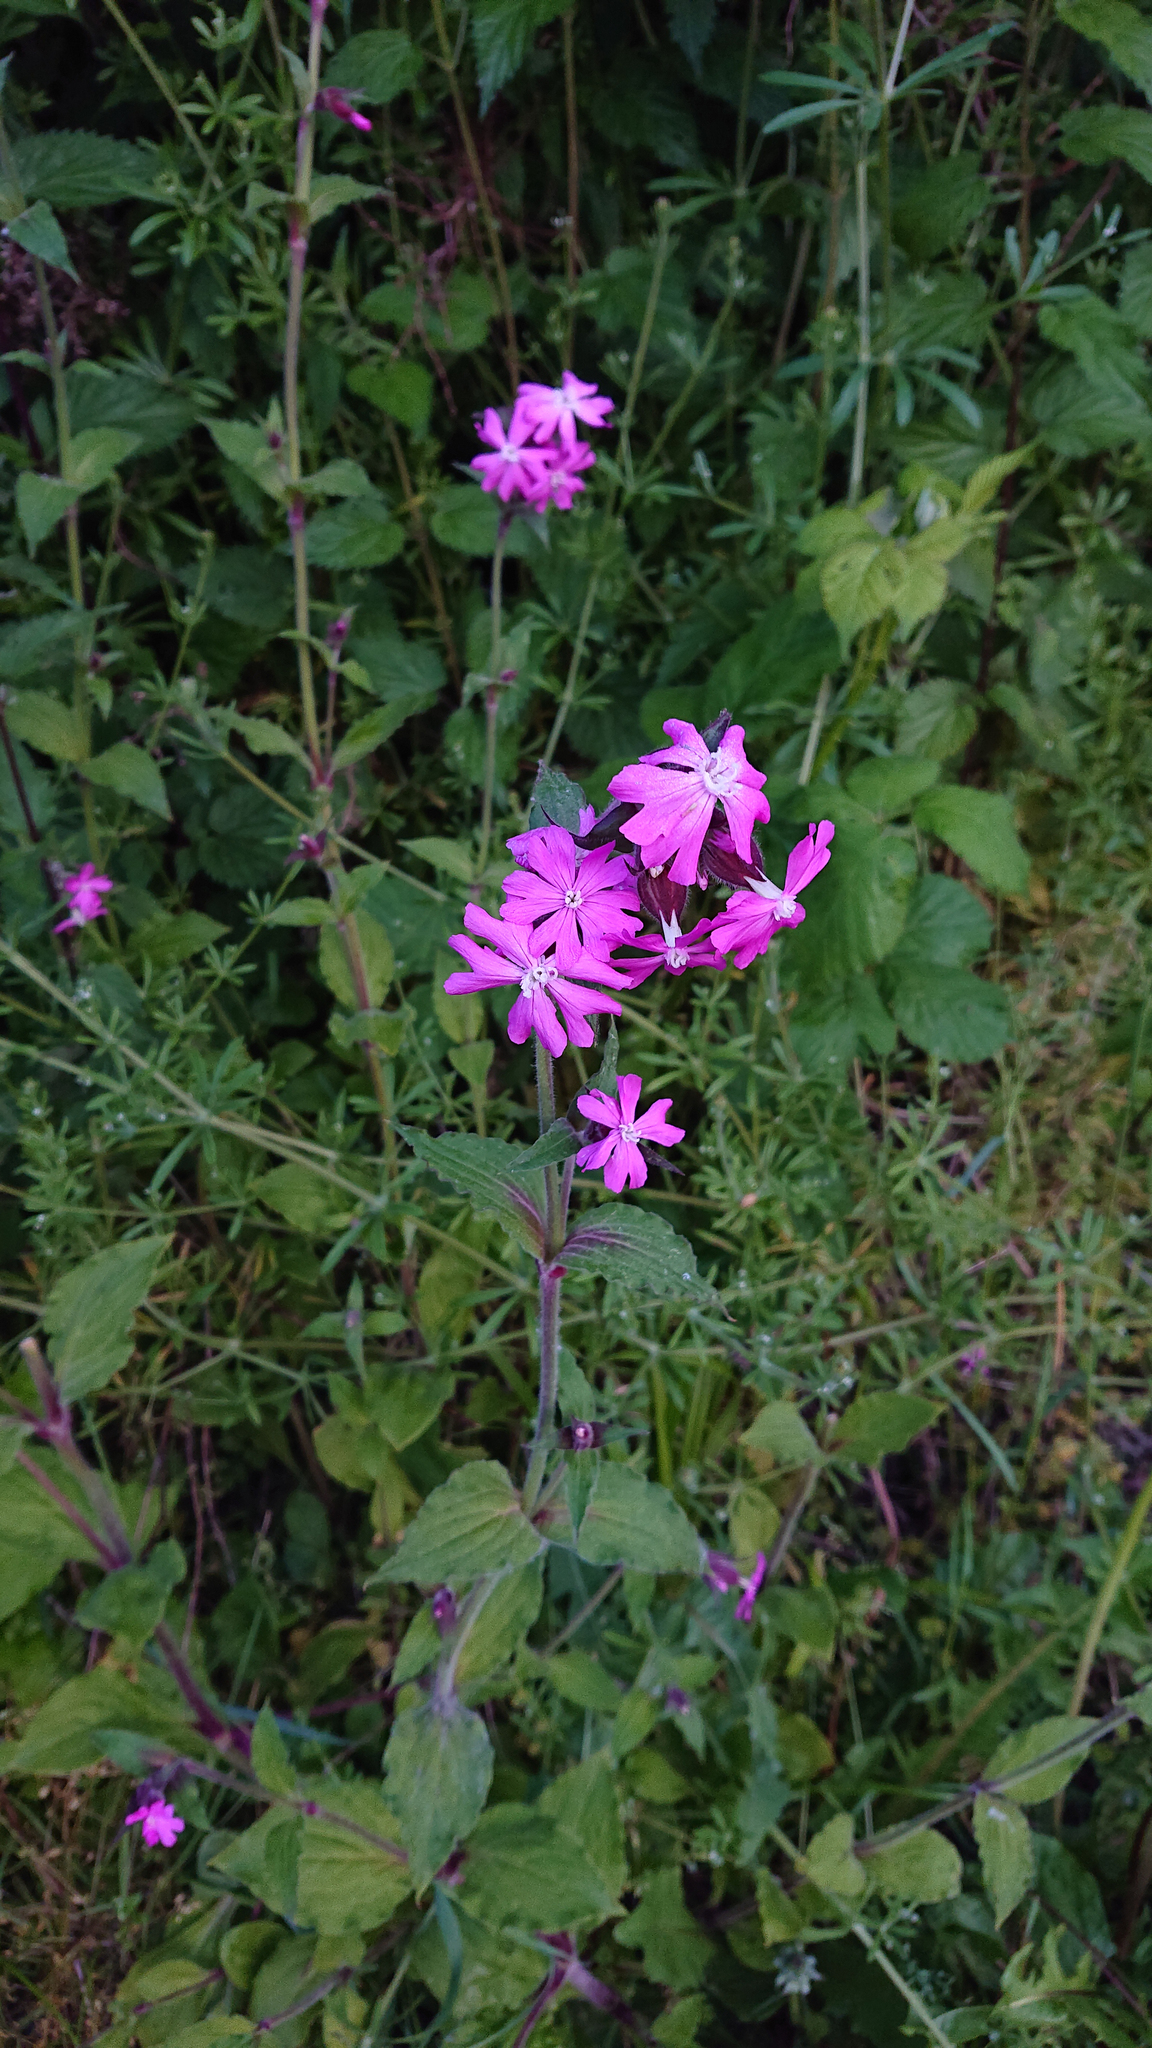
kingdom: Plantae
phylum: Tracheophyta
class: Magnoliopsida
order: Caryophyllales
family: Caryophyllaceae
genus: Silene
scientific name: Silene dioica
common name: Red campion
